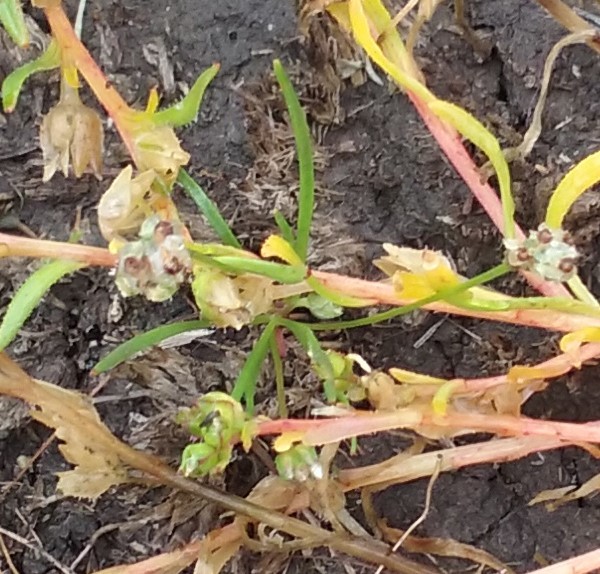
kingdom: Plantae
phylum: Tracheophyta
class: Magnoliopsida
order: Lamiales
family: Plantaginaceae
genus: Plantago
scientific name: Plantago erecta
